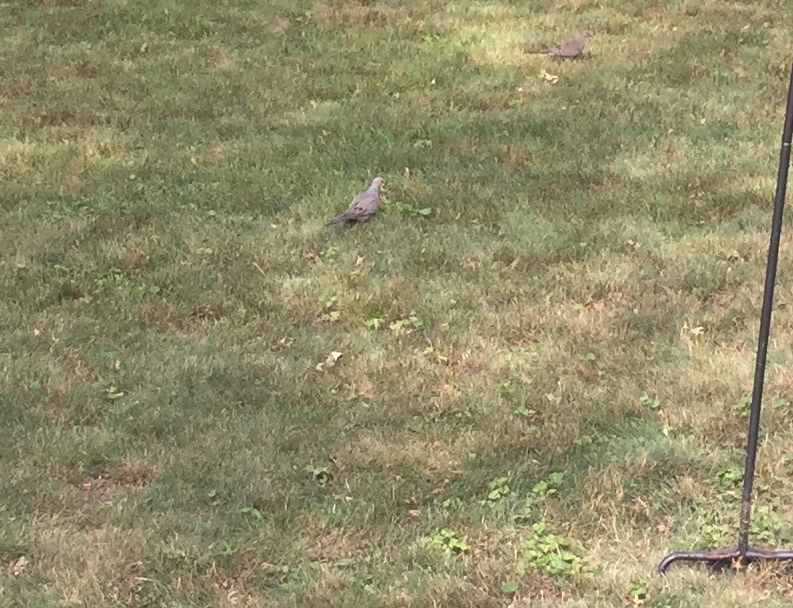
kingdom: Animalia
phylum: Chordata
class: Aves
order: Columbiformes
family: Columbidae
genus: Zenaida
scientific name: Zenaida macroura
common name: Mourning dove
